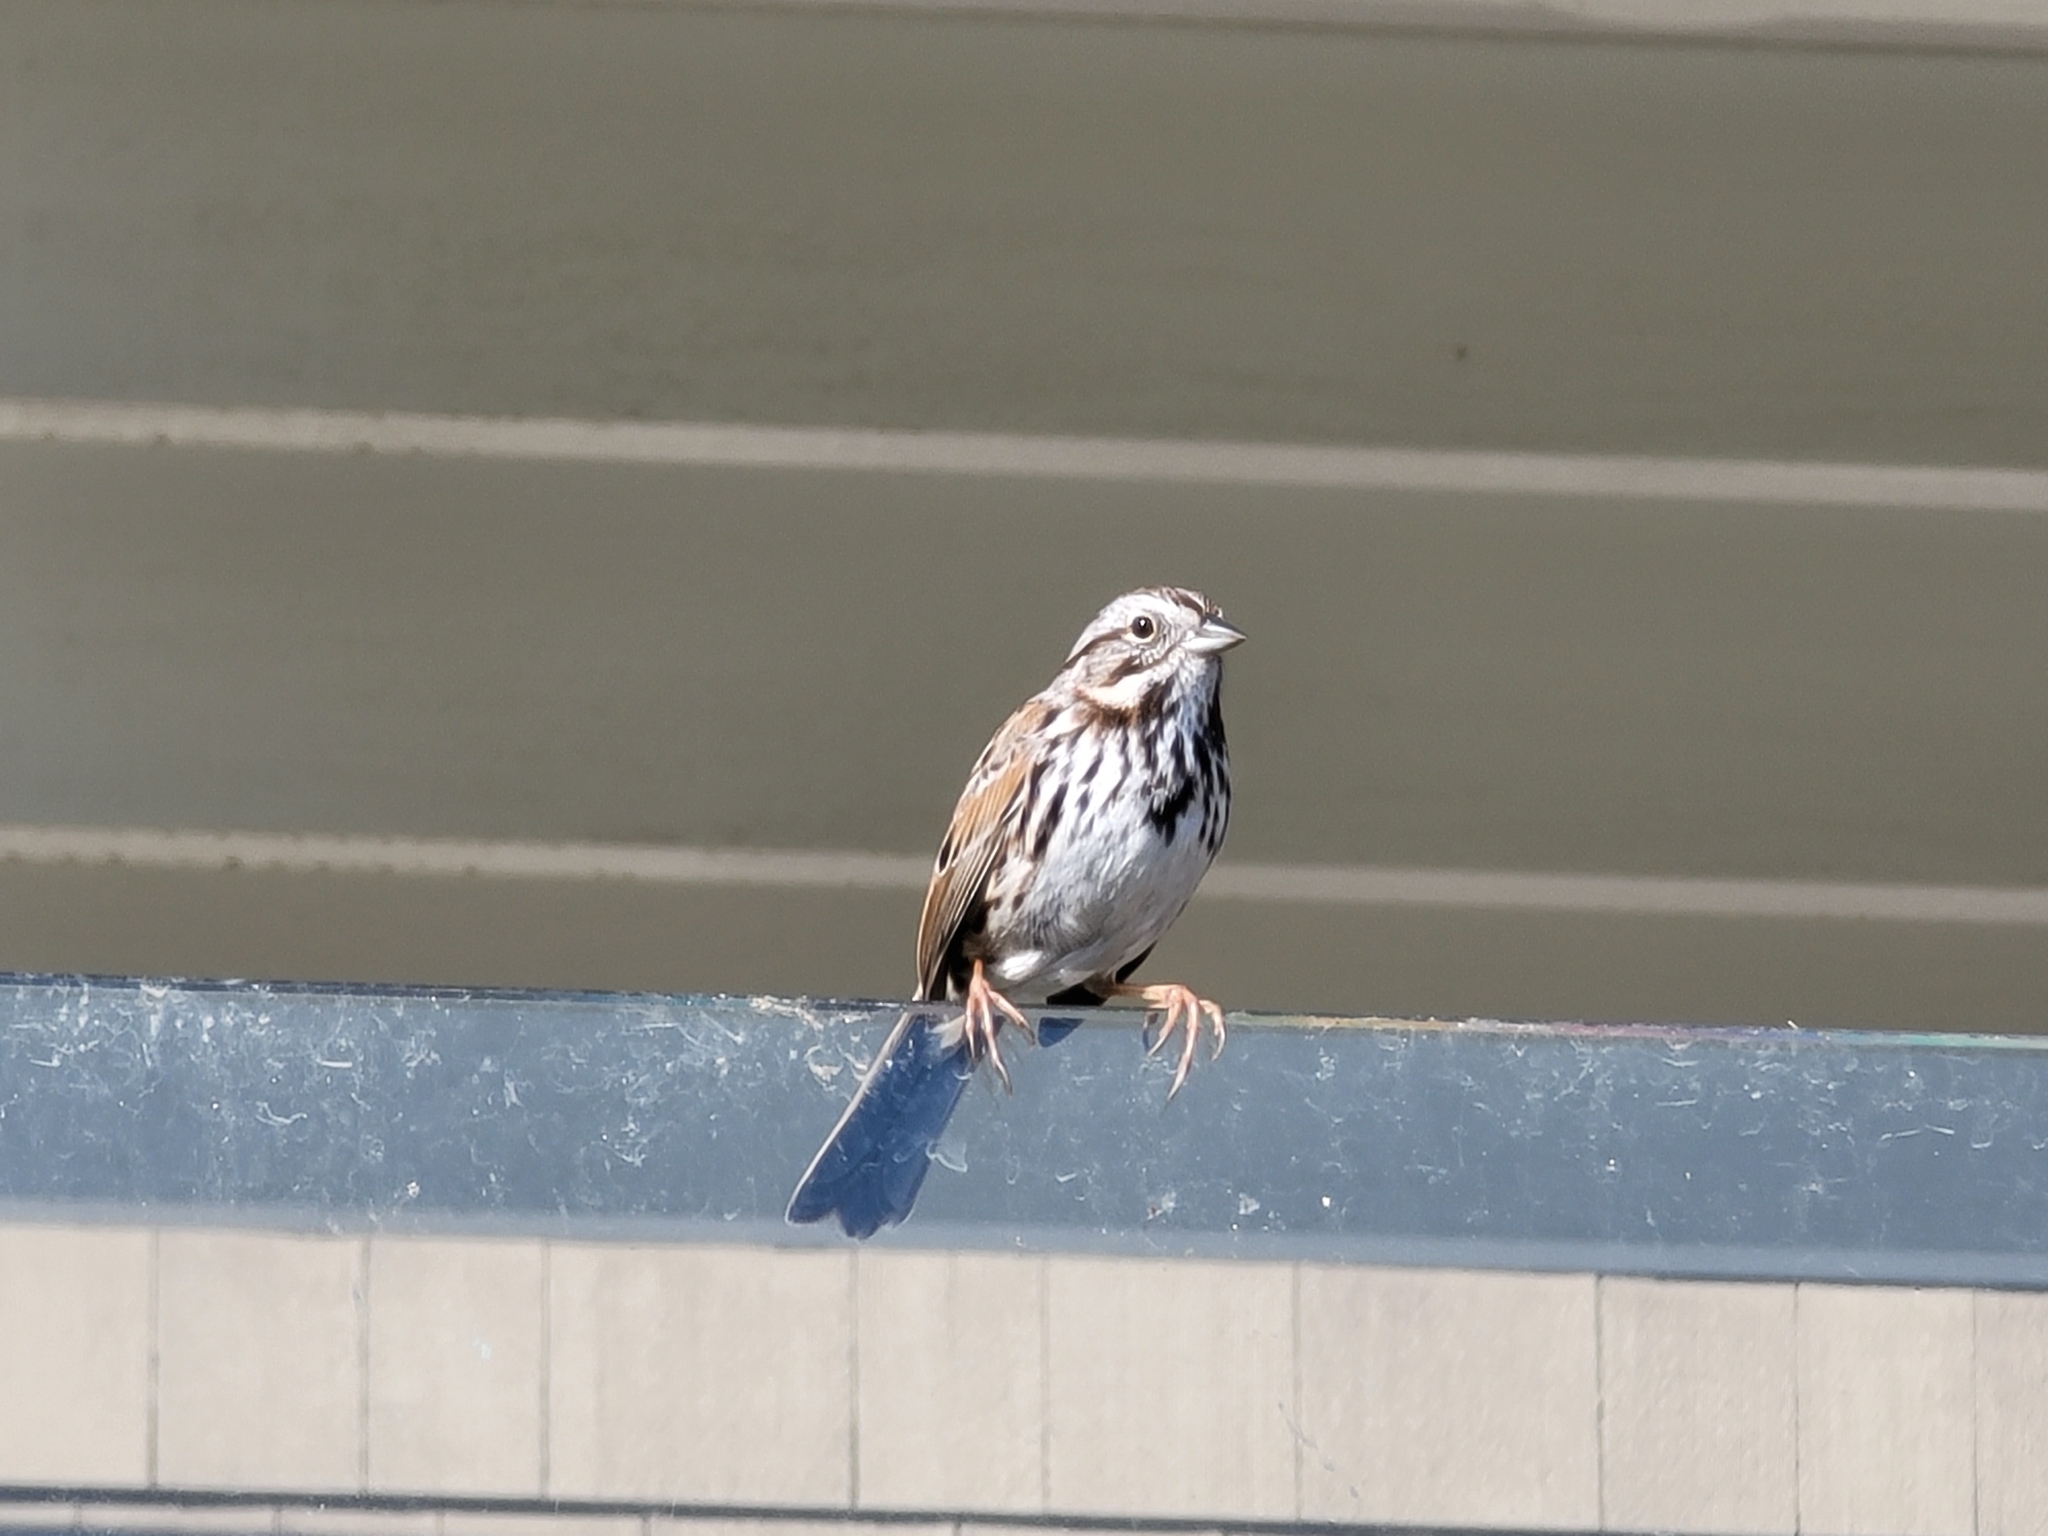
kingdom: Animalia
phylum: Chordata
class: Aves
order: Passeriformes
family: Passerellidae
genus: Melospiza
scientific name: Melospiza melodia
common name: Song sparrow
